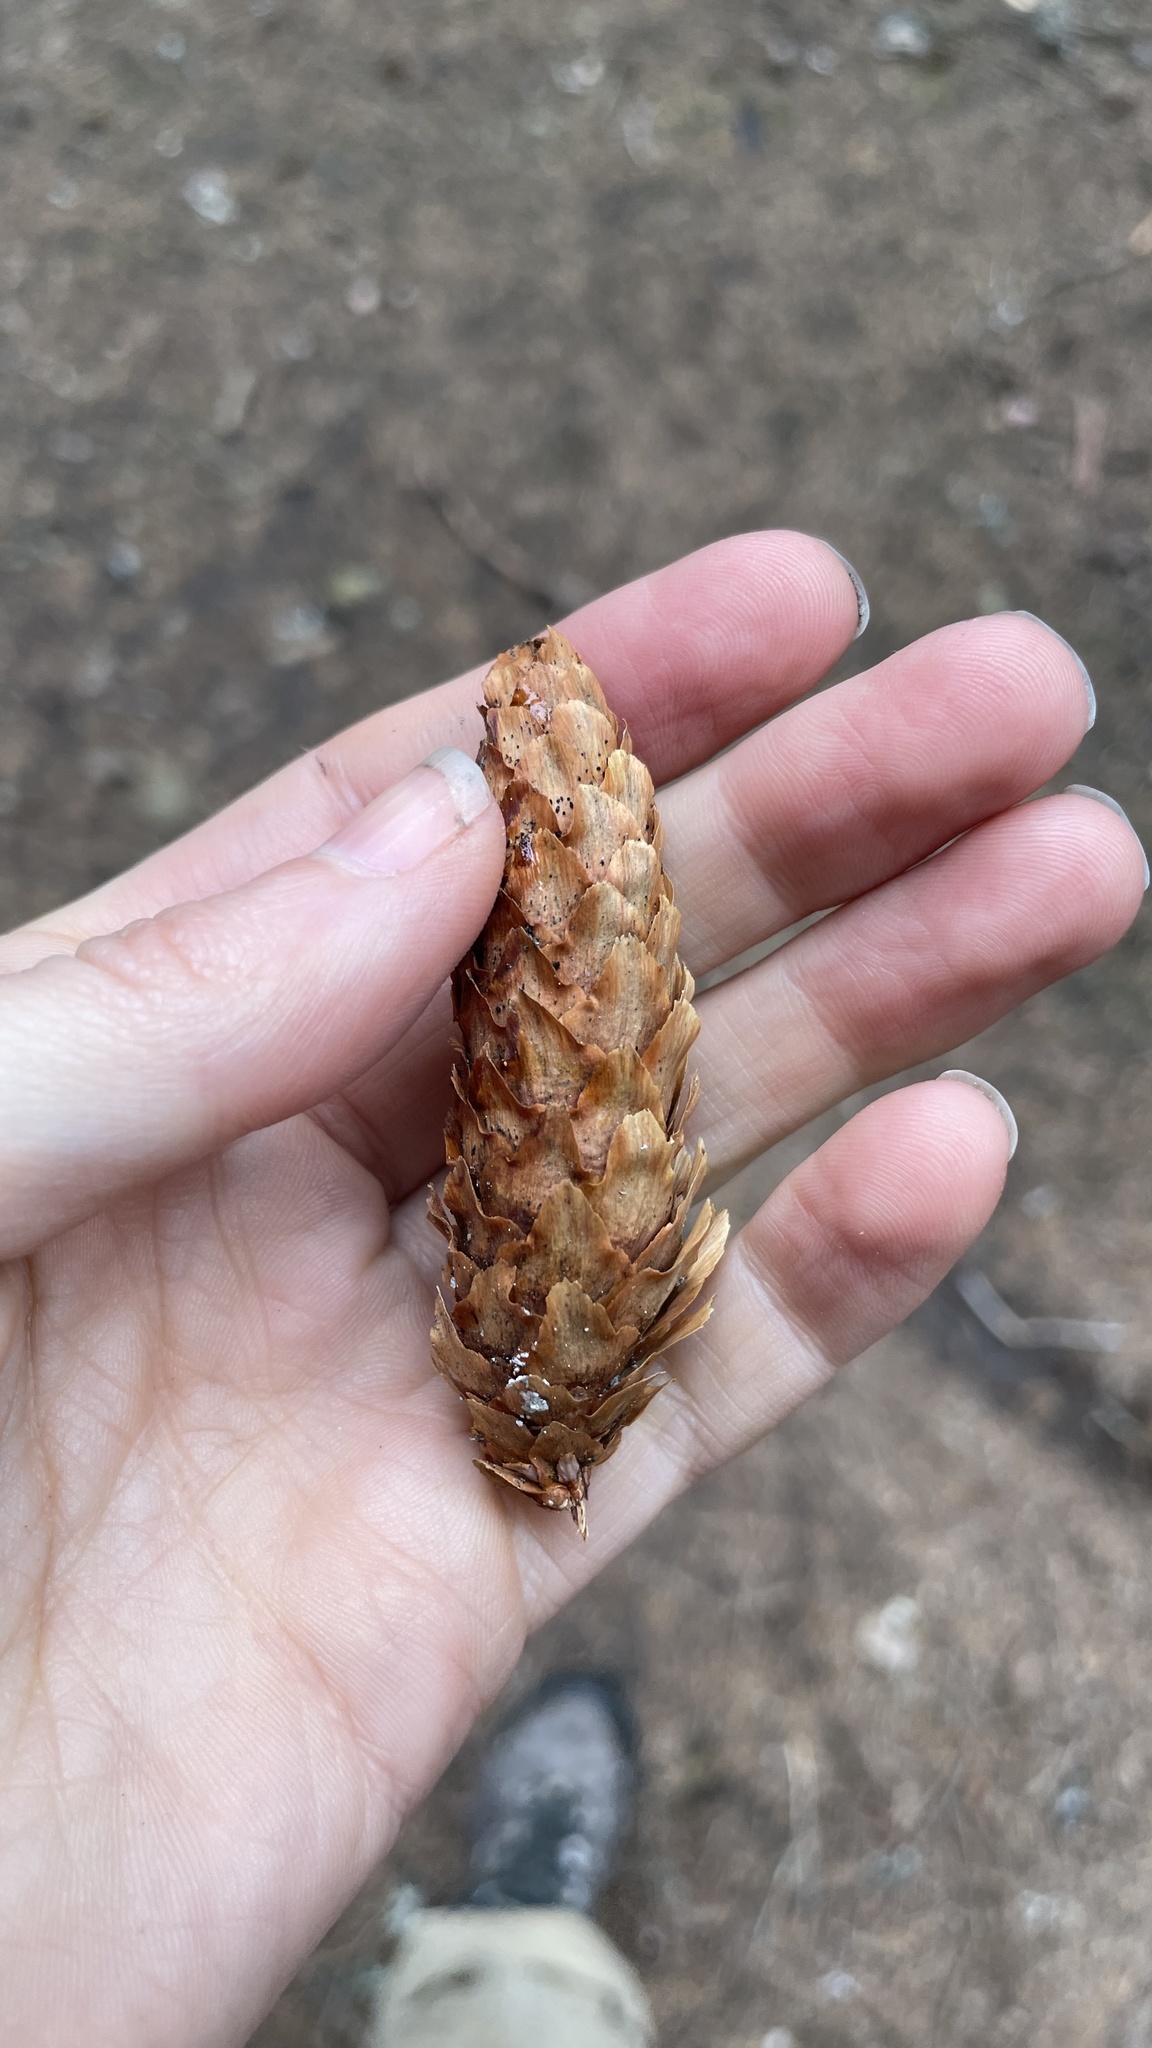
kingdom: Plantae
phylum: Tracheophyta
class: Pinopsida
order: Pinales
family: Pinaceae
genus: Picea
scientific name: Picea engelmannii
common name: Engelmann spruce
